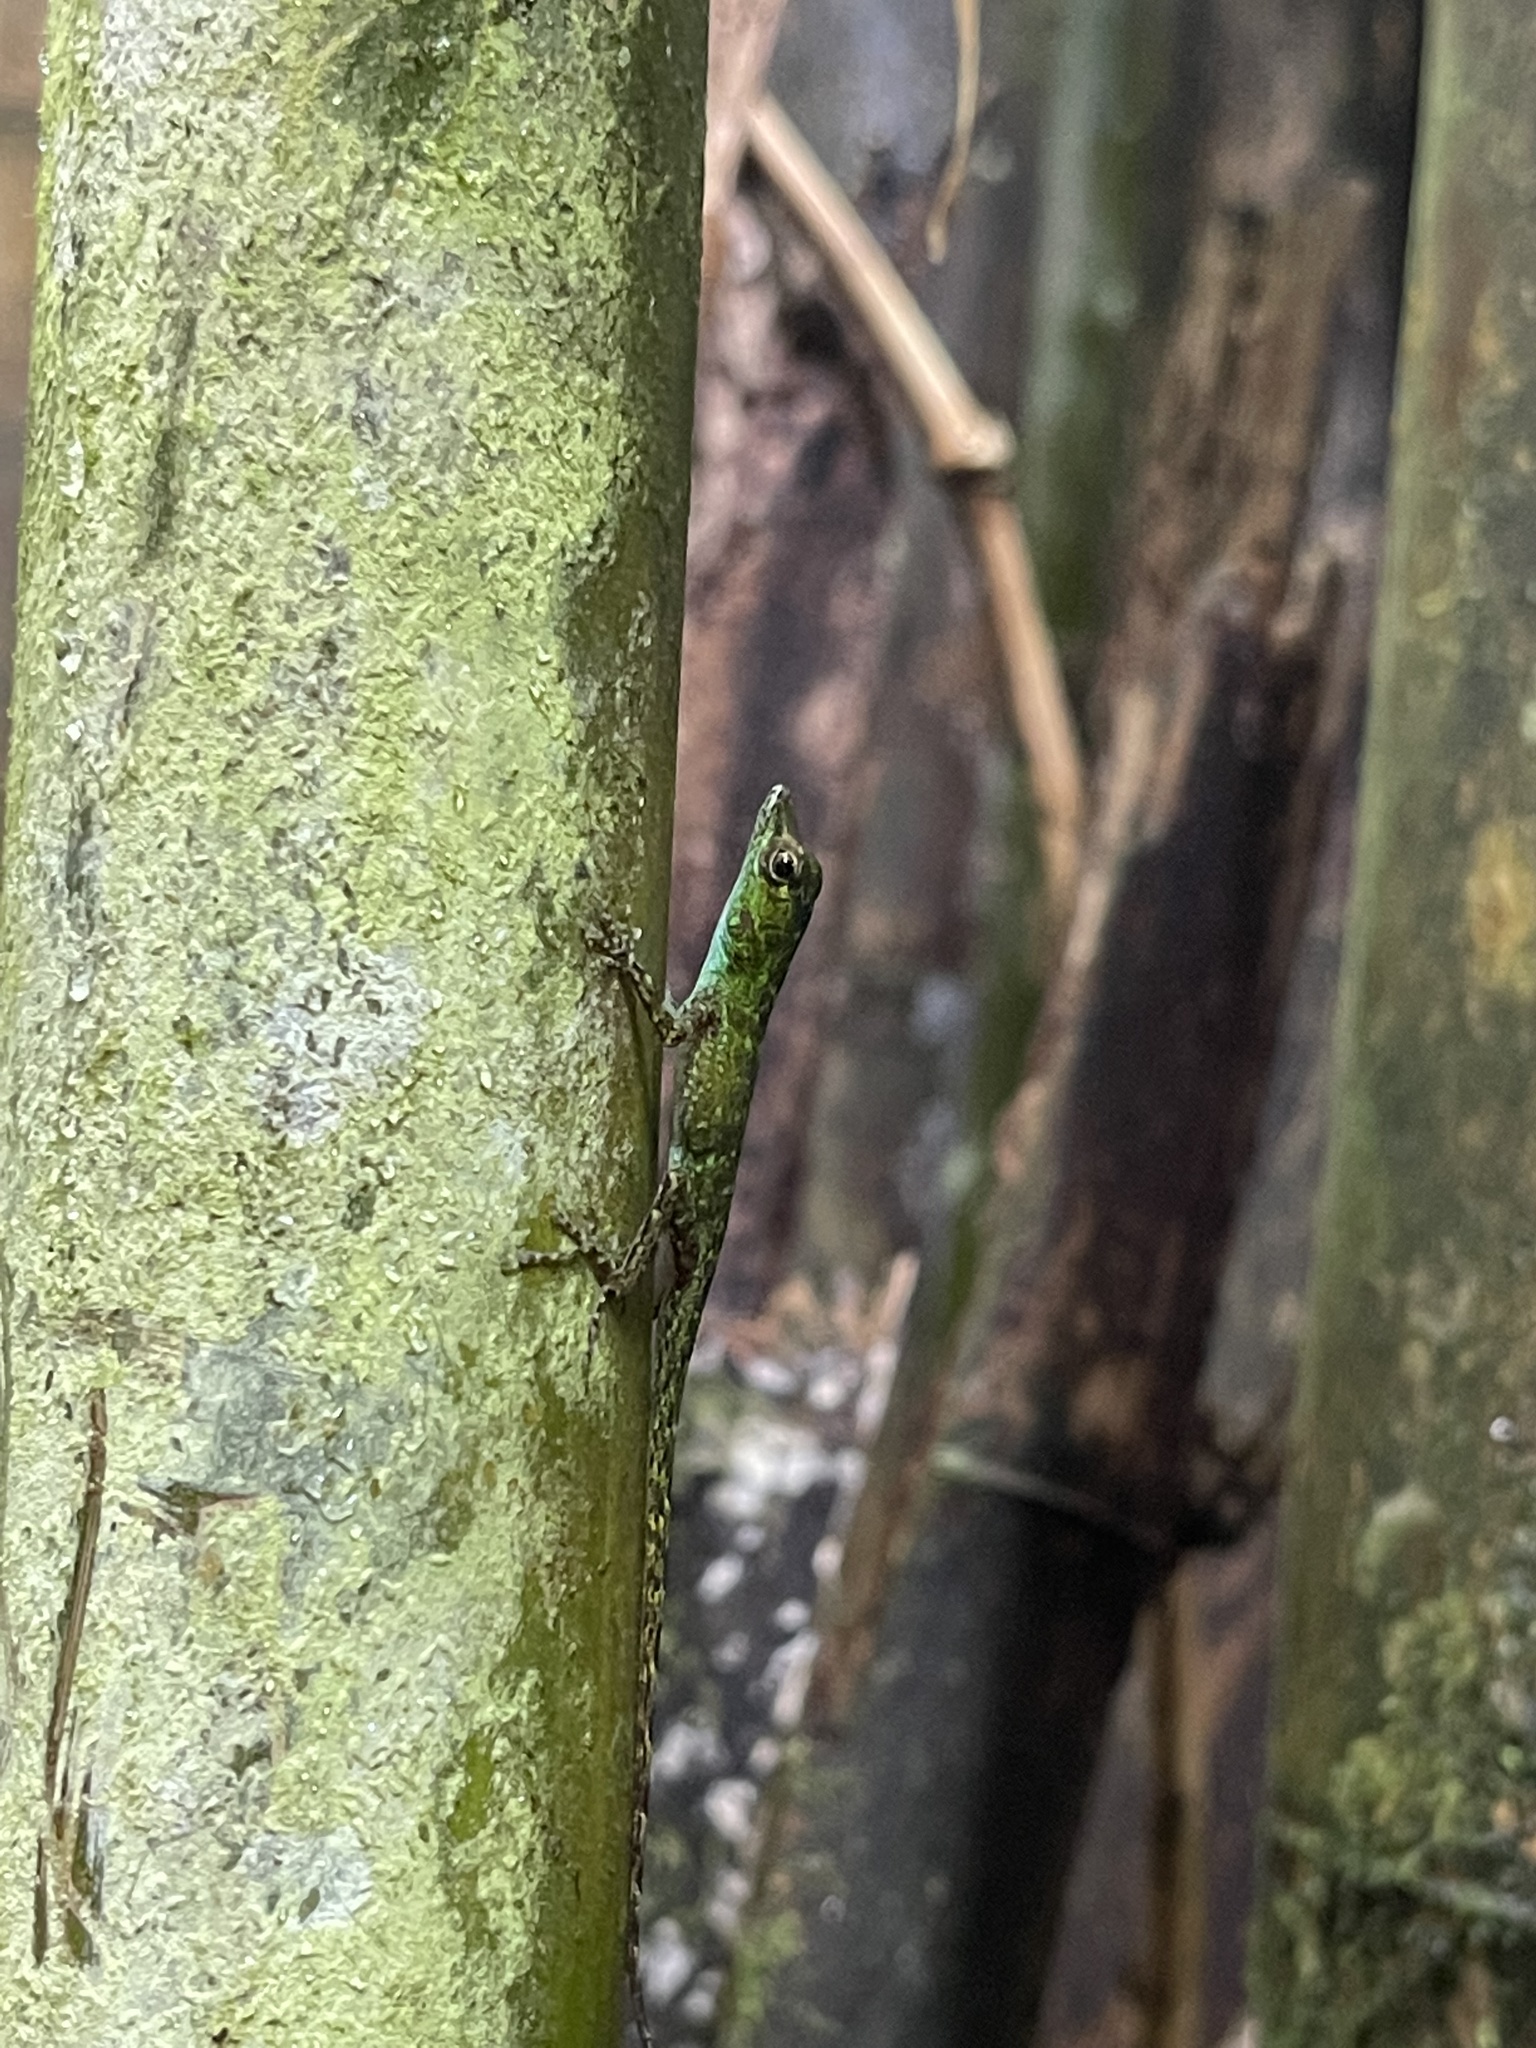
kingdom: Animalia
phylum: Chordata
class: Squamata
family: Dactyloidae
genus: Anolis
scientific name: Anolis evermanni
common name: Emerald anole
